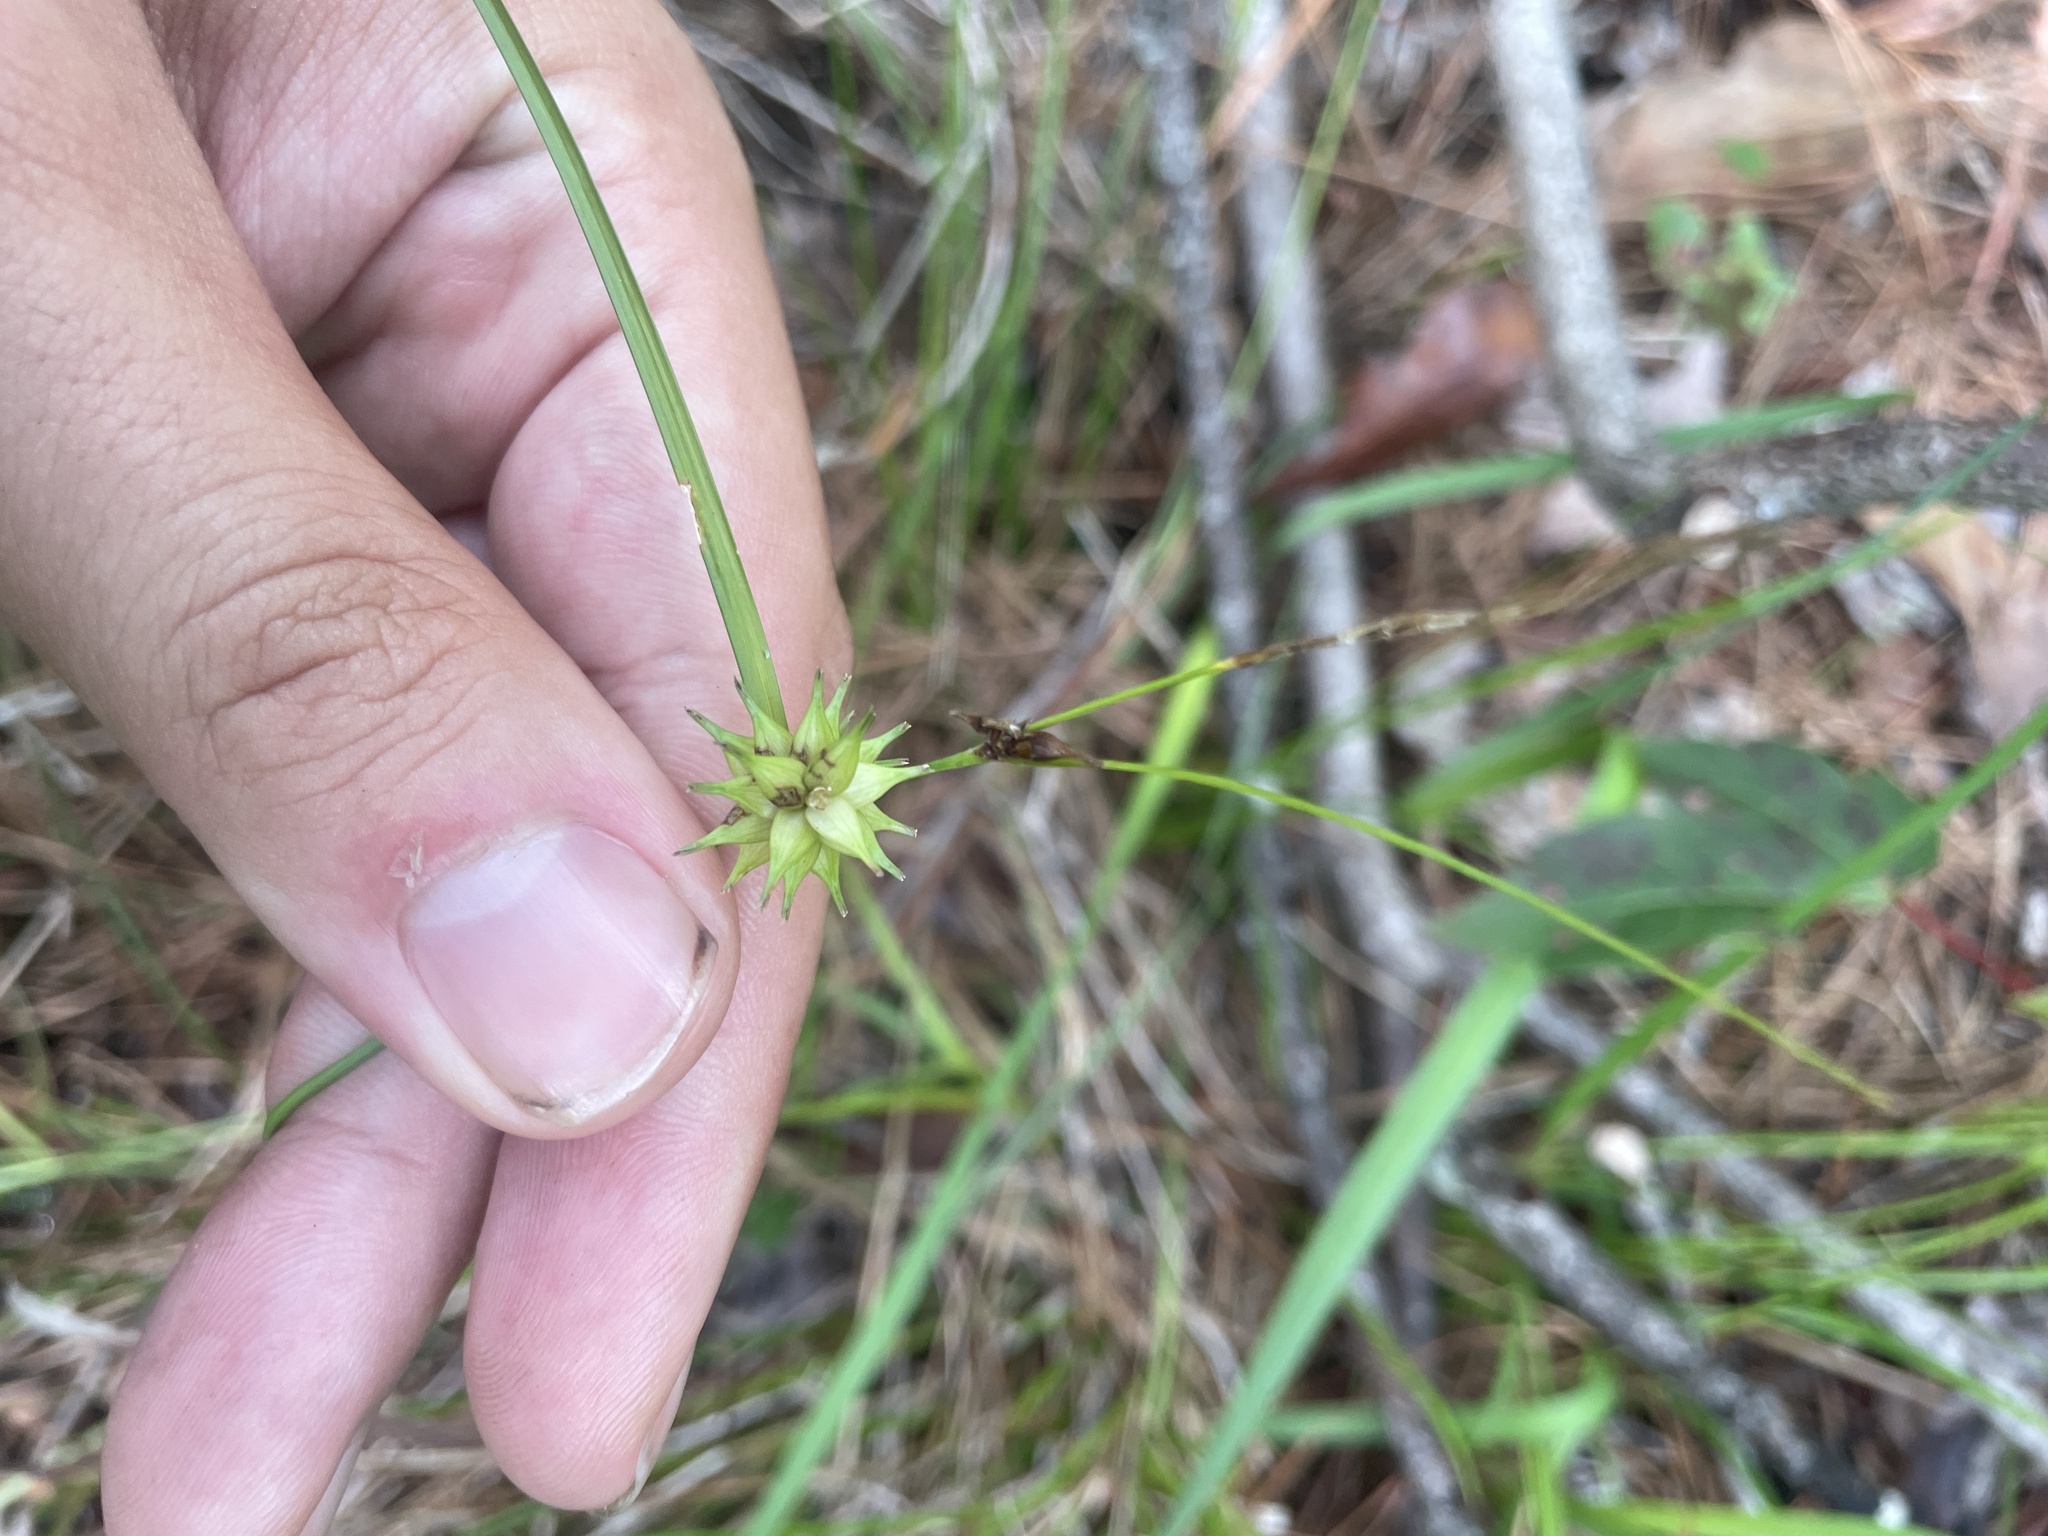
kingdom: Plantae
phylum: Tracheophyta
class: Liliopsida
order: Poales
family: Cyperaceae
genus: Carex
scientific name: Carex elliottii
